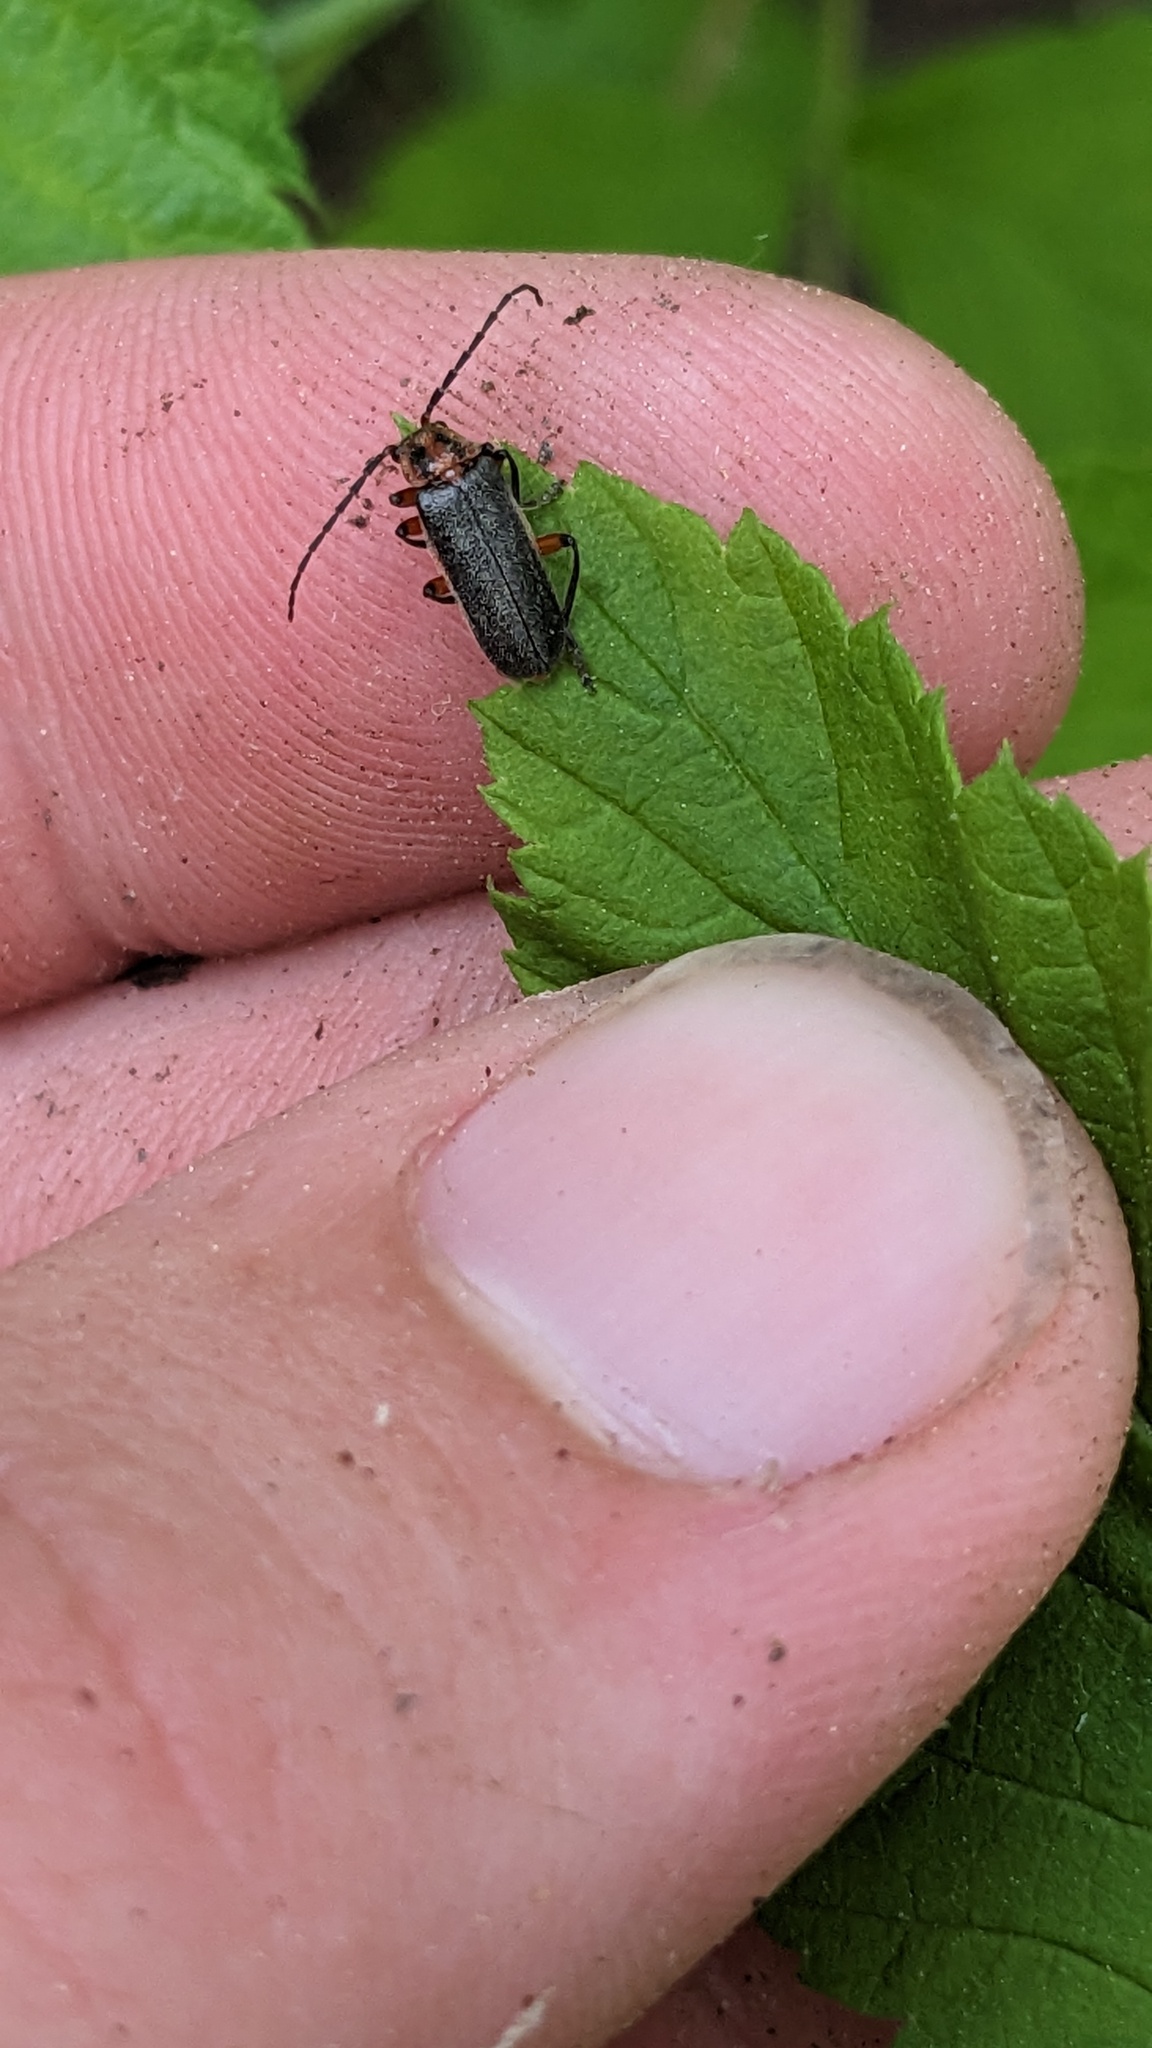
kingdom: Animalia
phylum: Arthropoda
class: Insecta
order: Coleoptera
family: Cantharidae
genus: Atalantycha
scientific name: Atalantycha bilineata
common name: Two-lined leatherwing
